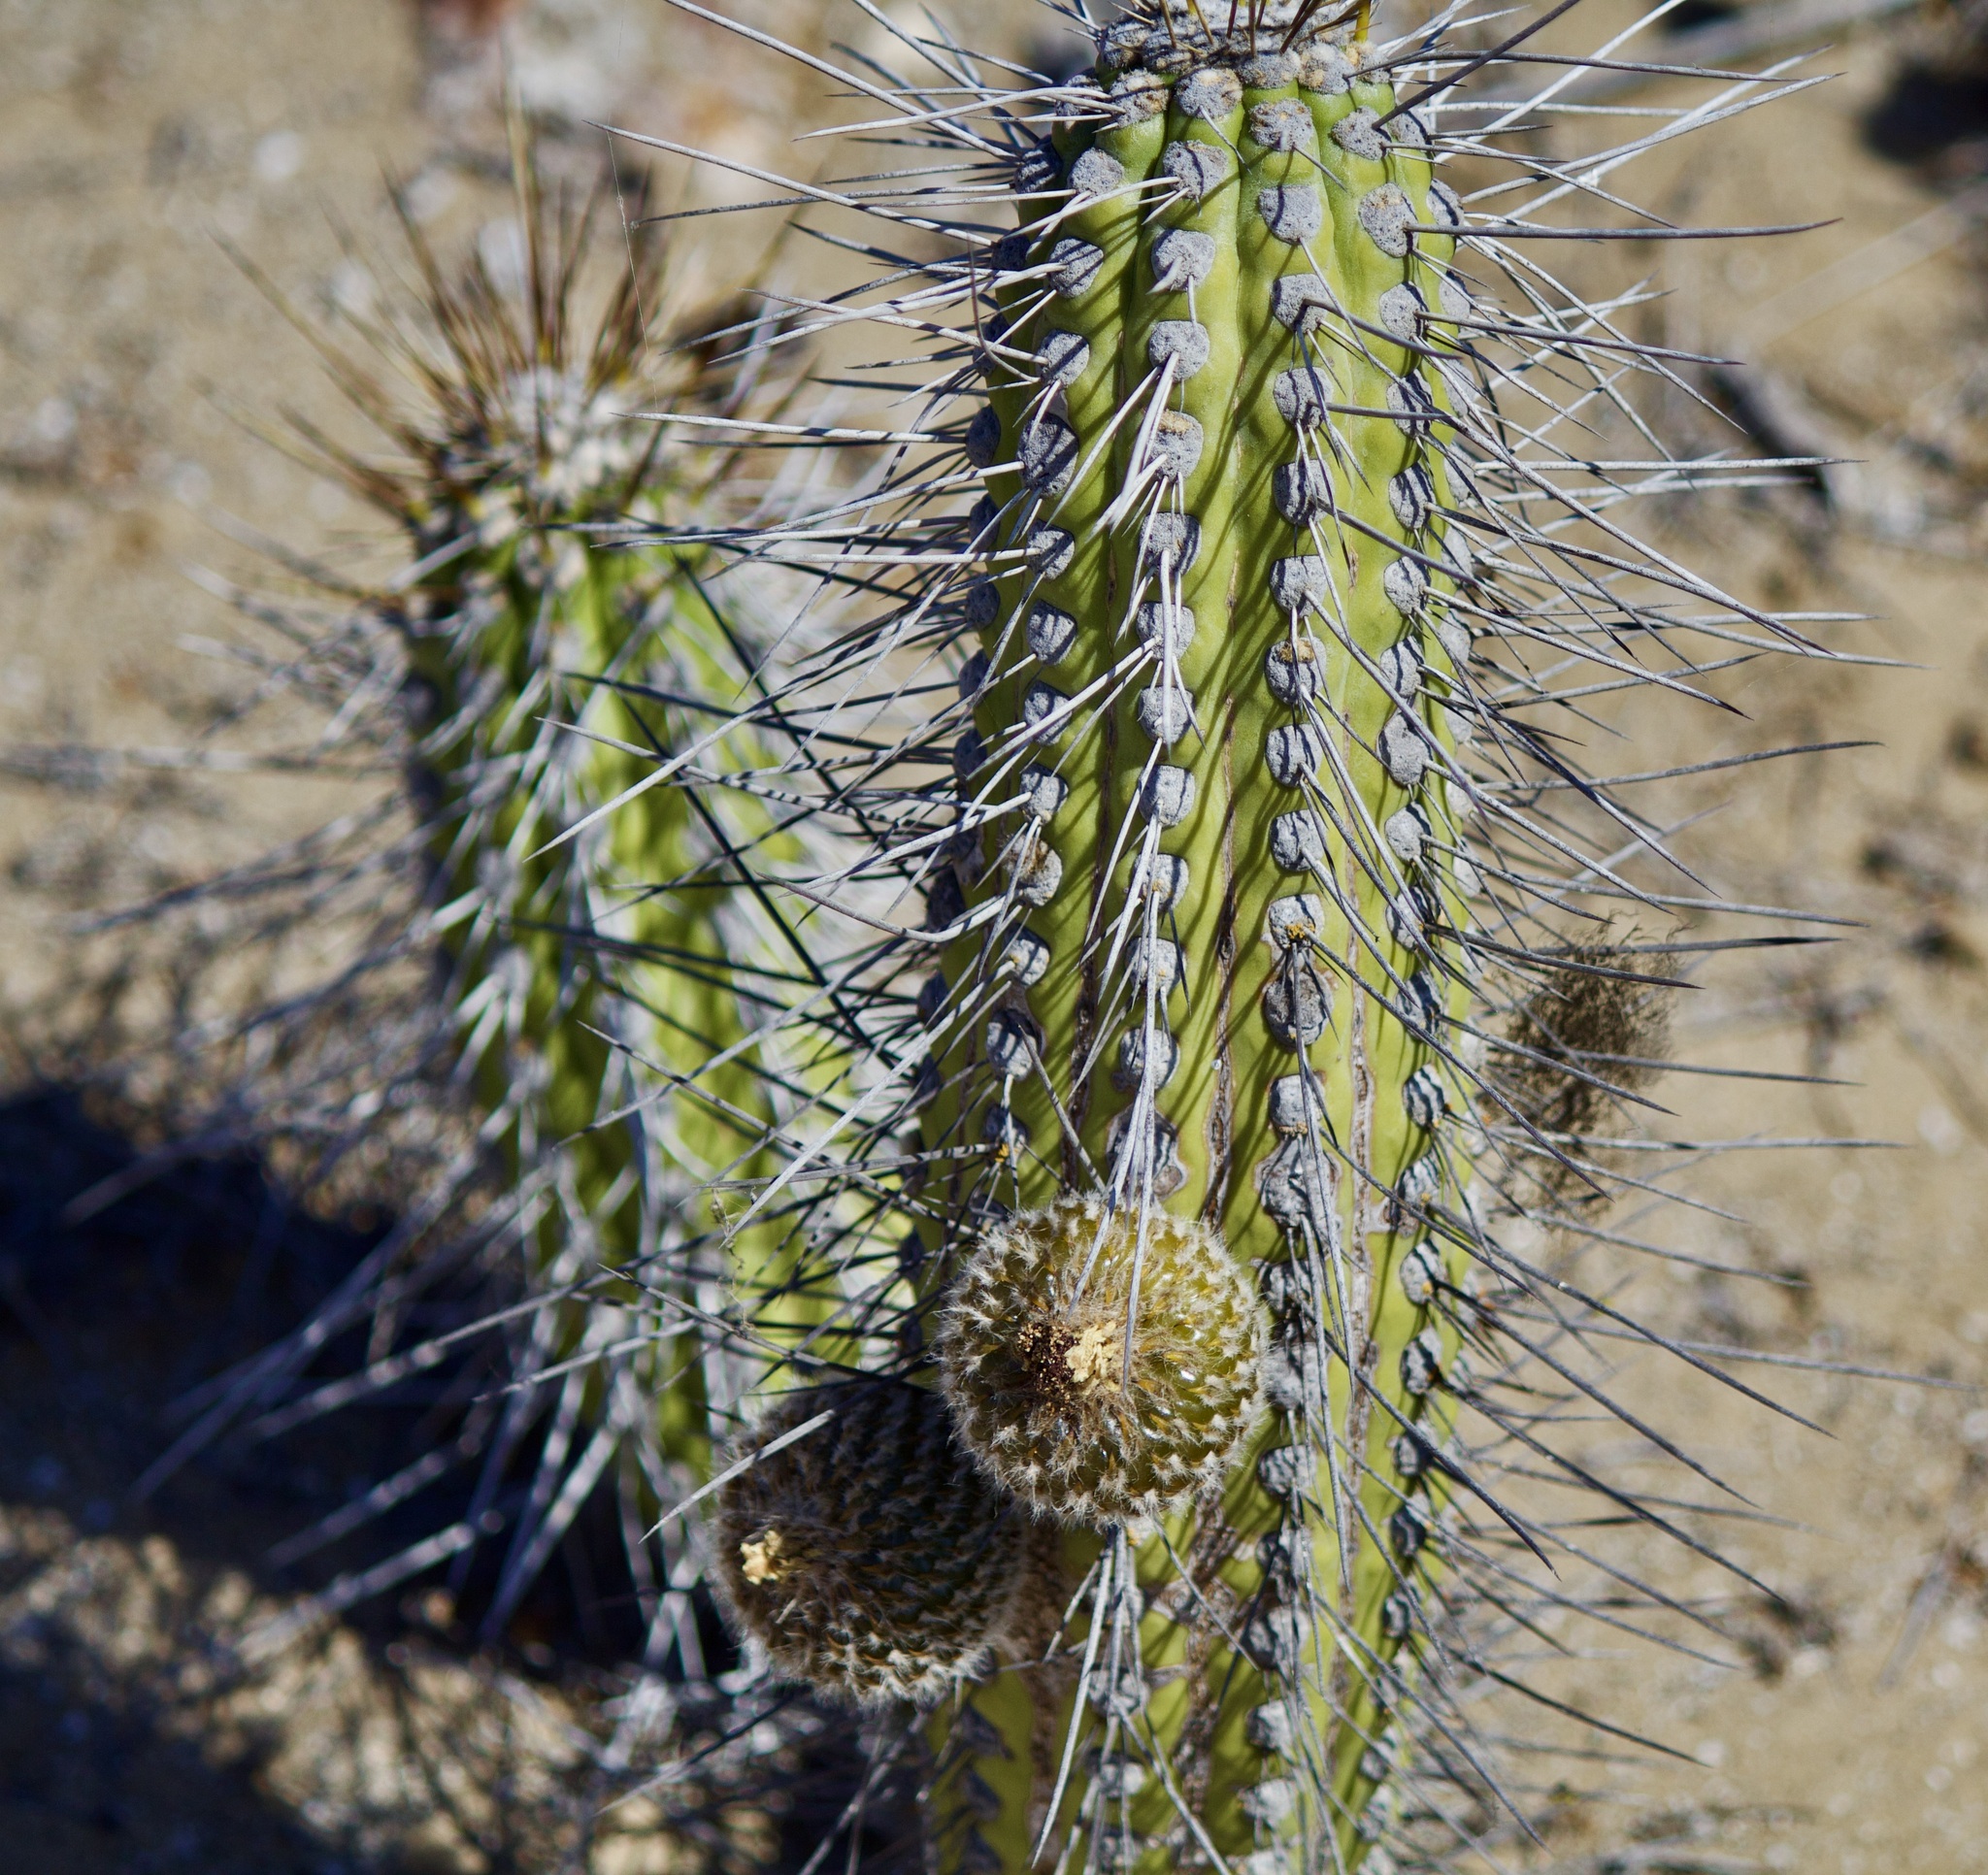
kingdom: Plantae
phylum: Tracheophyta
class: Magnoliopsida
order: Caryophyllales
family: Cactaceae
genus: Eulychnia
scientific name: Eulychnia chorosensis
